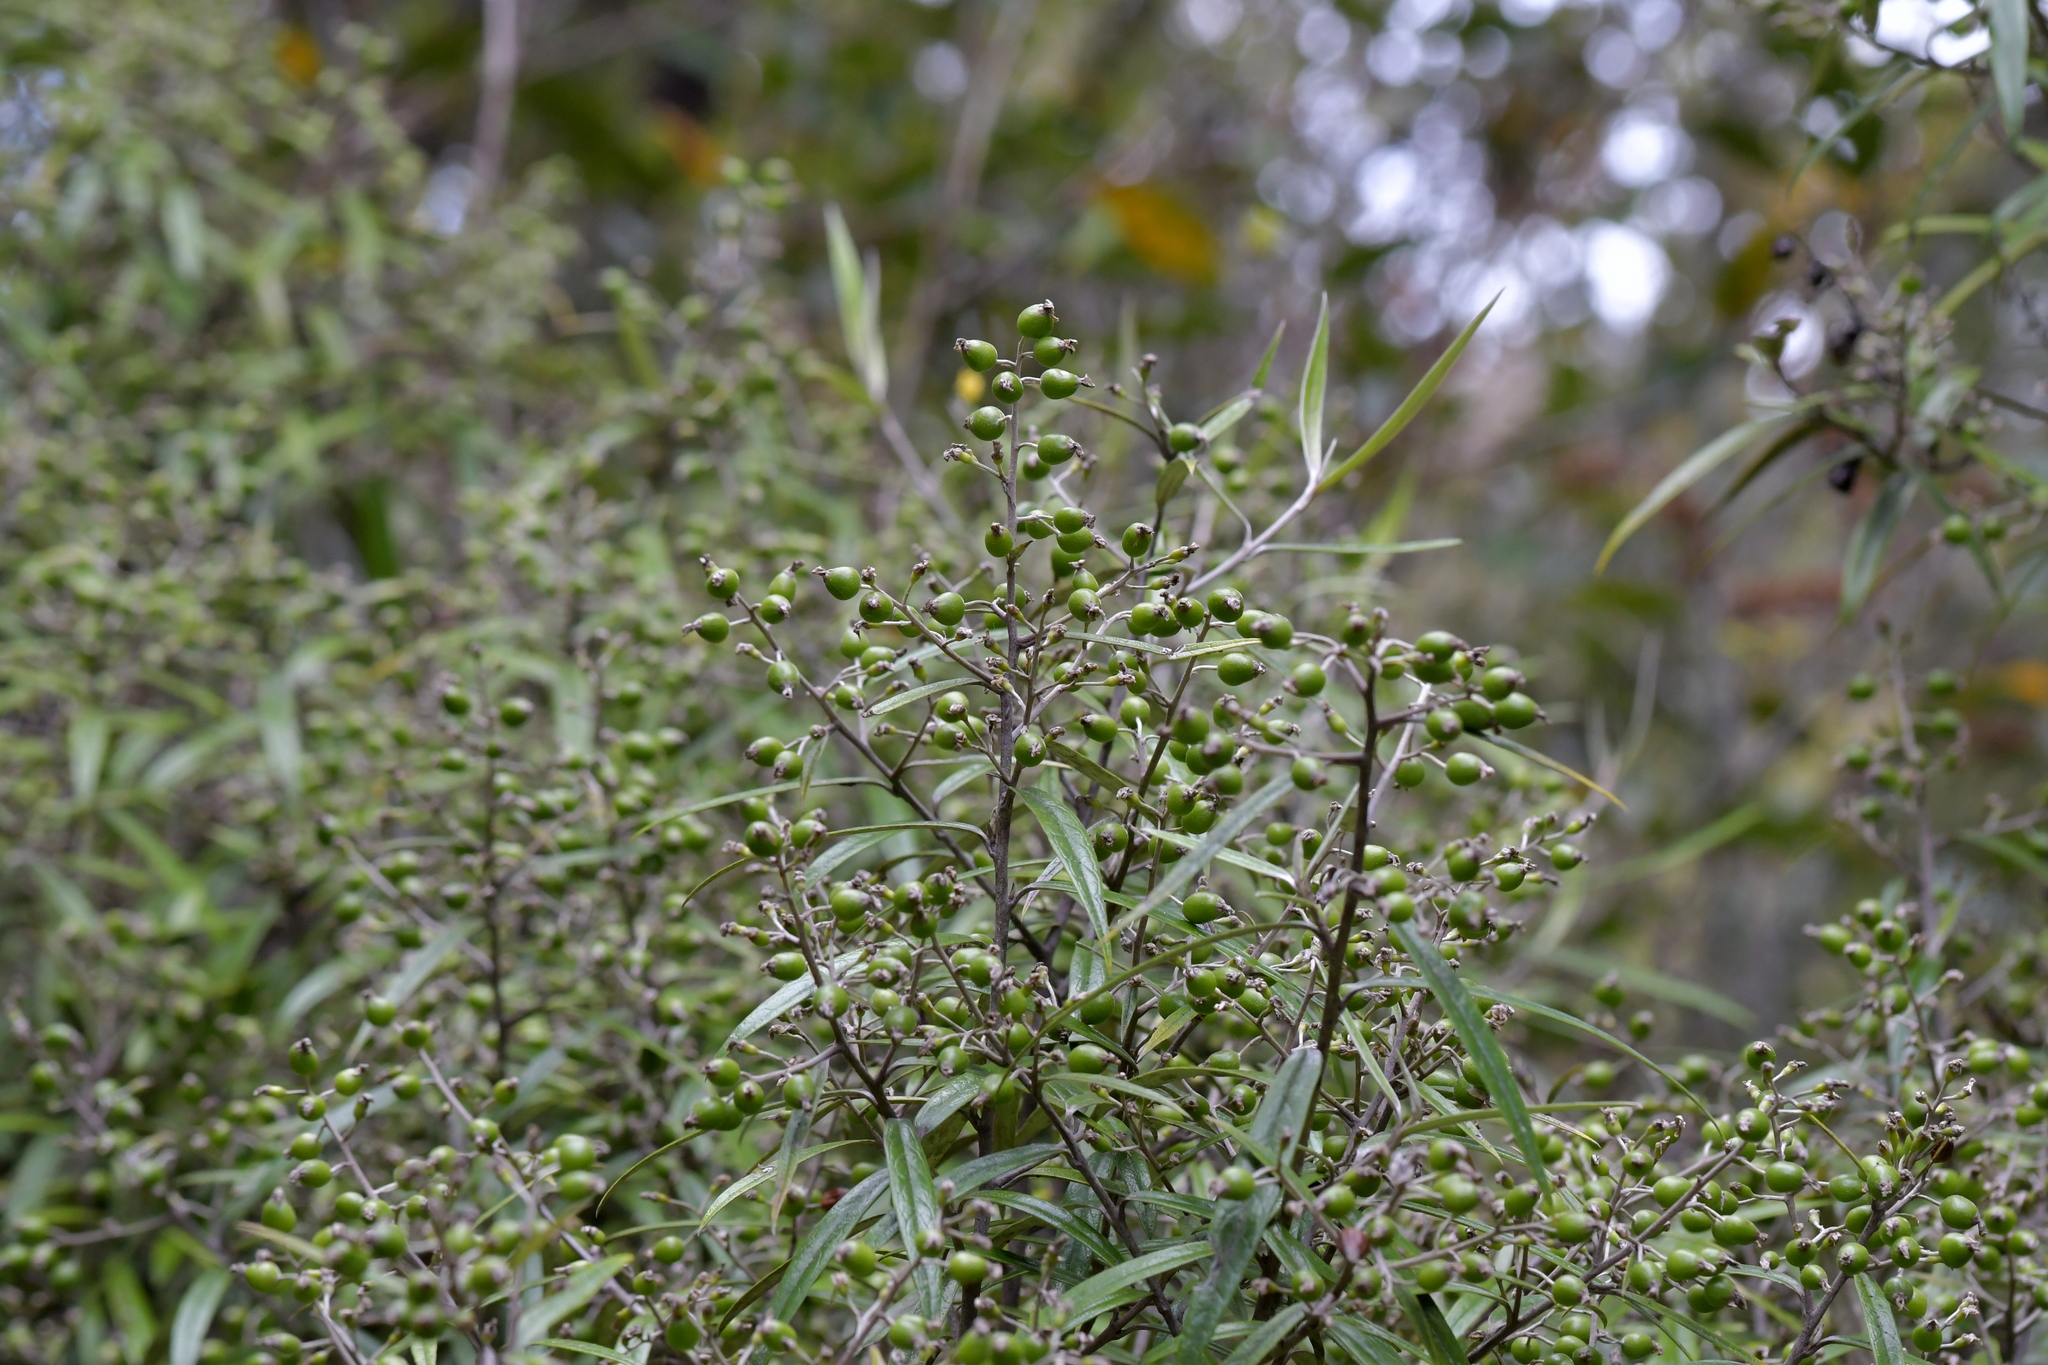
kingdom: Plantae
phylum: Tracheophyta
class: Magnoliopsida
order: Asterales
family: Argophyllaceae
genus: Corokia
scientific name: Corokia buddleioides
